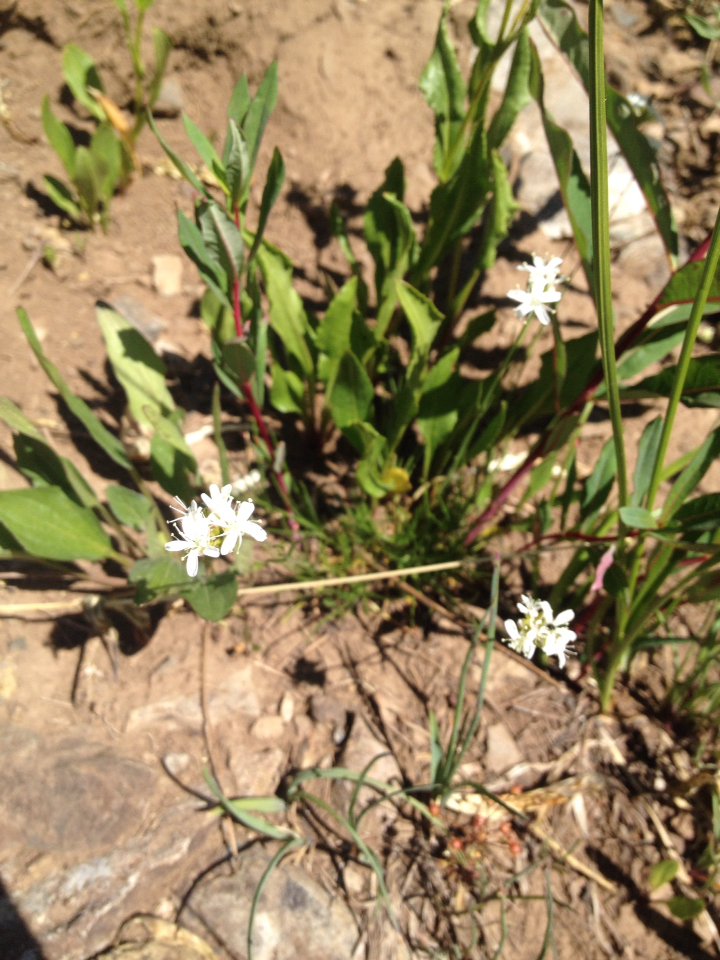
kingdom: Plantae
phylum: Tracheophyta
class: Magnoliopsida
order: Caryophyllales
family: Caryophyllaceae
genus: Eremogone
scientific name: Eremogone congesta
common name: Ballhead sandwort
